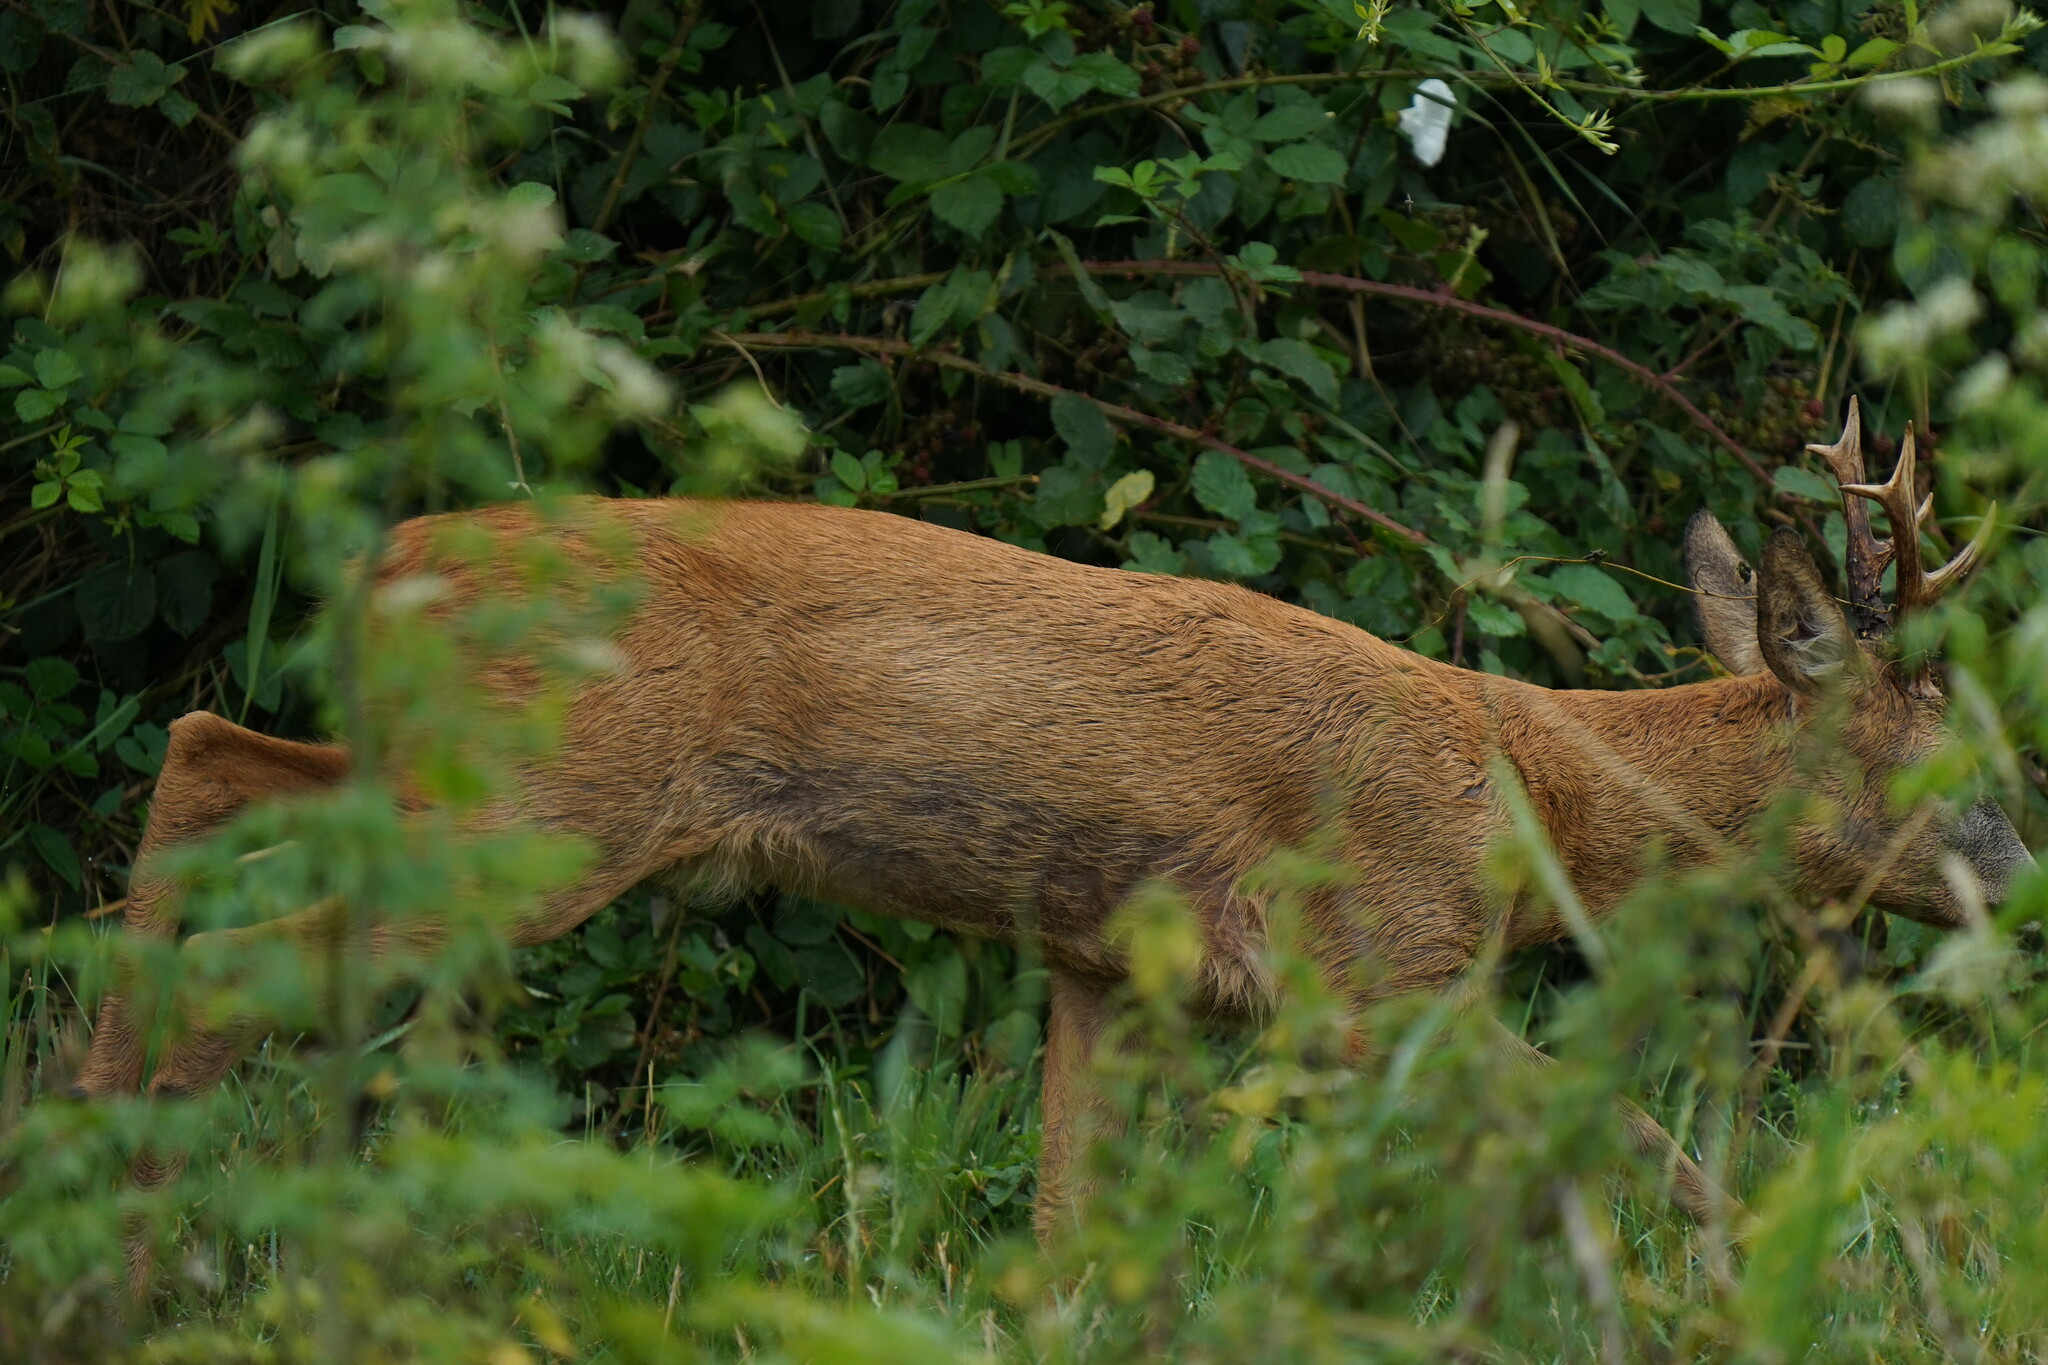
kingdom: Animalia
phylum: Chordata
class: Mammalia
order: Artiodactyla
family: Cervidae
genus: Capreolus
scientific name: Capreolus capreolus
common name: Western roe deer
